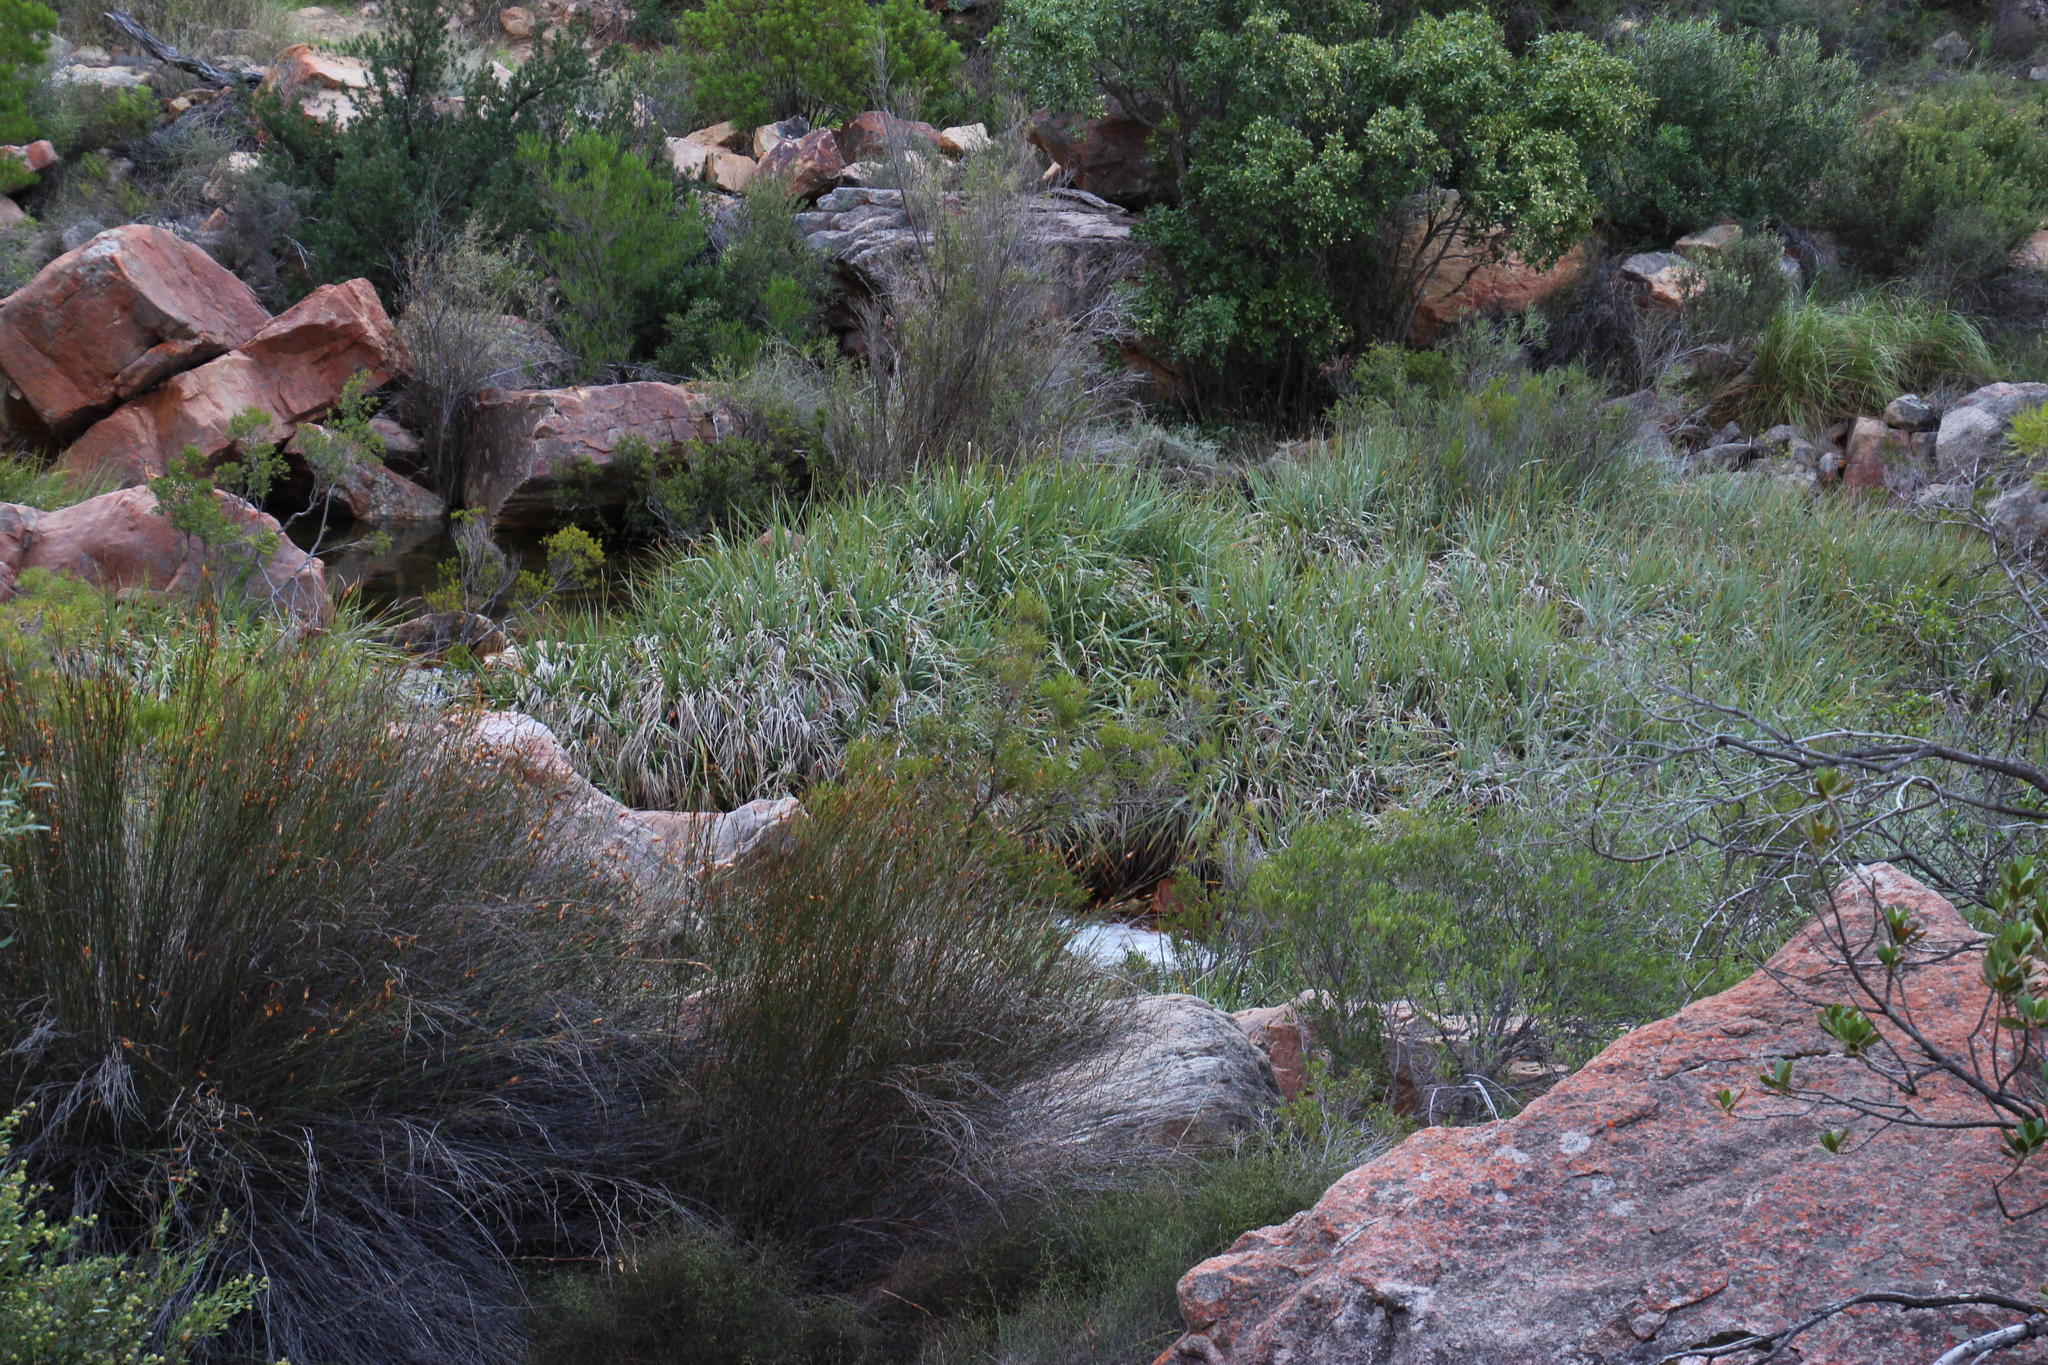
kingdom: Plantae
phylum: Tracheophyta
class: Liliopsida
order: Poales
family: Thurniaceae
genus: Prionium
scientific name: Prionium serratum
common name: Palmiet
